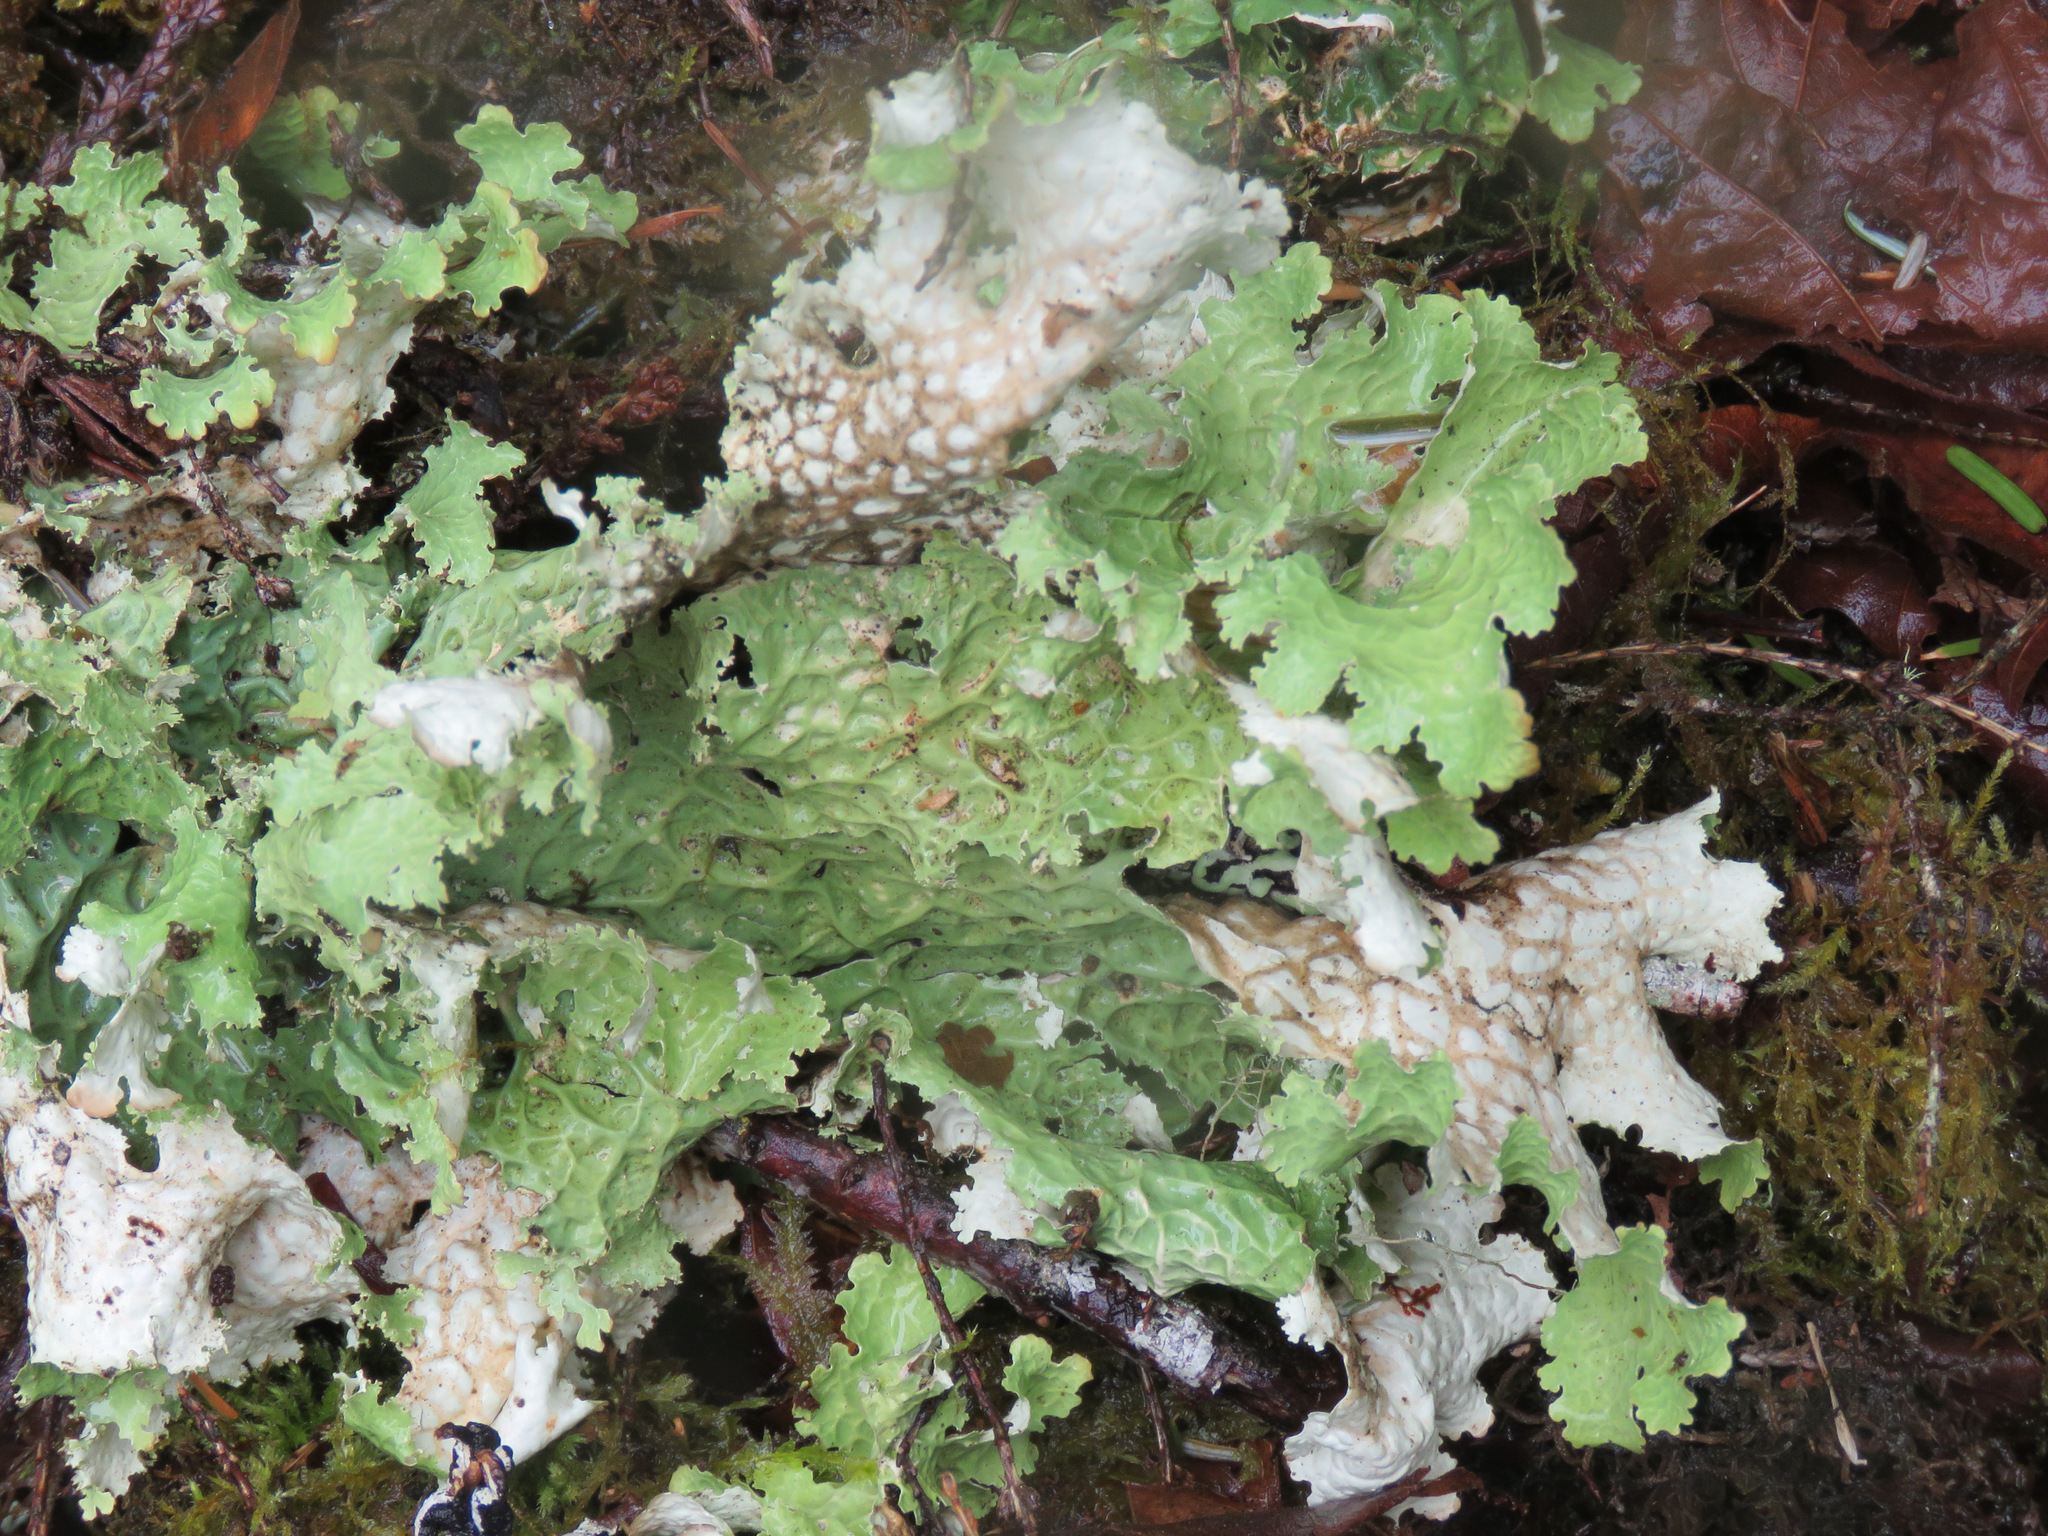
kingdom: Fungi
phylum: Ascomycota
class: Lecanoromycetes
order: Peltigerales
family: Lobariaceae
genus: Lobaria
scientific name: Lobaria oregana
